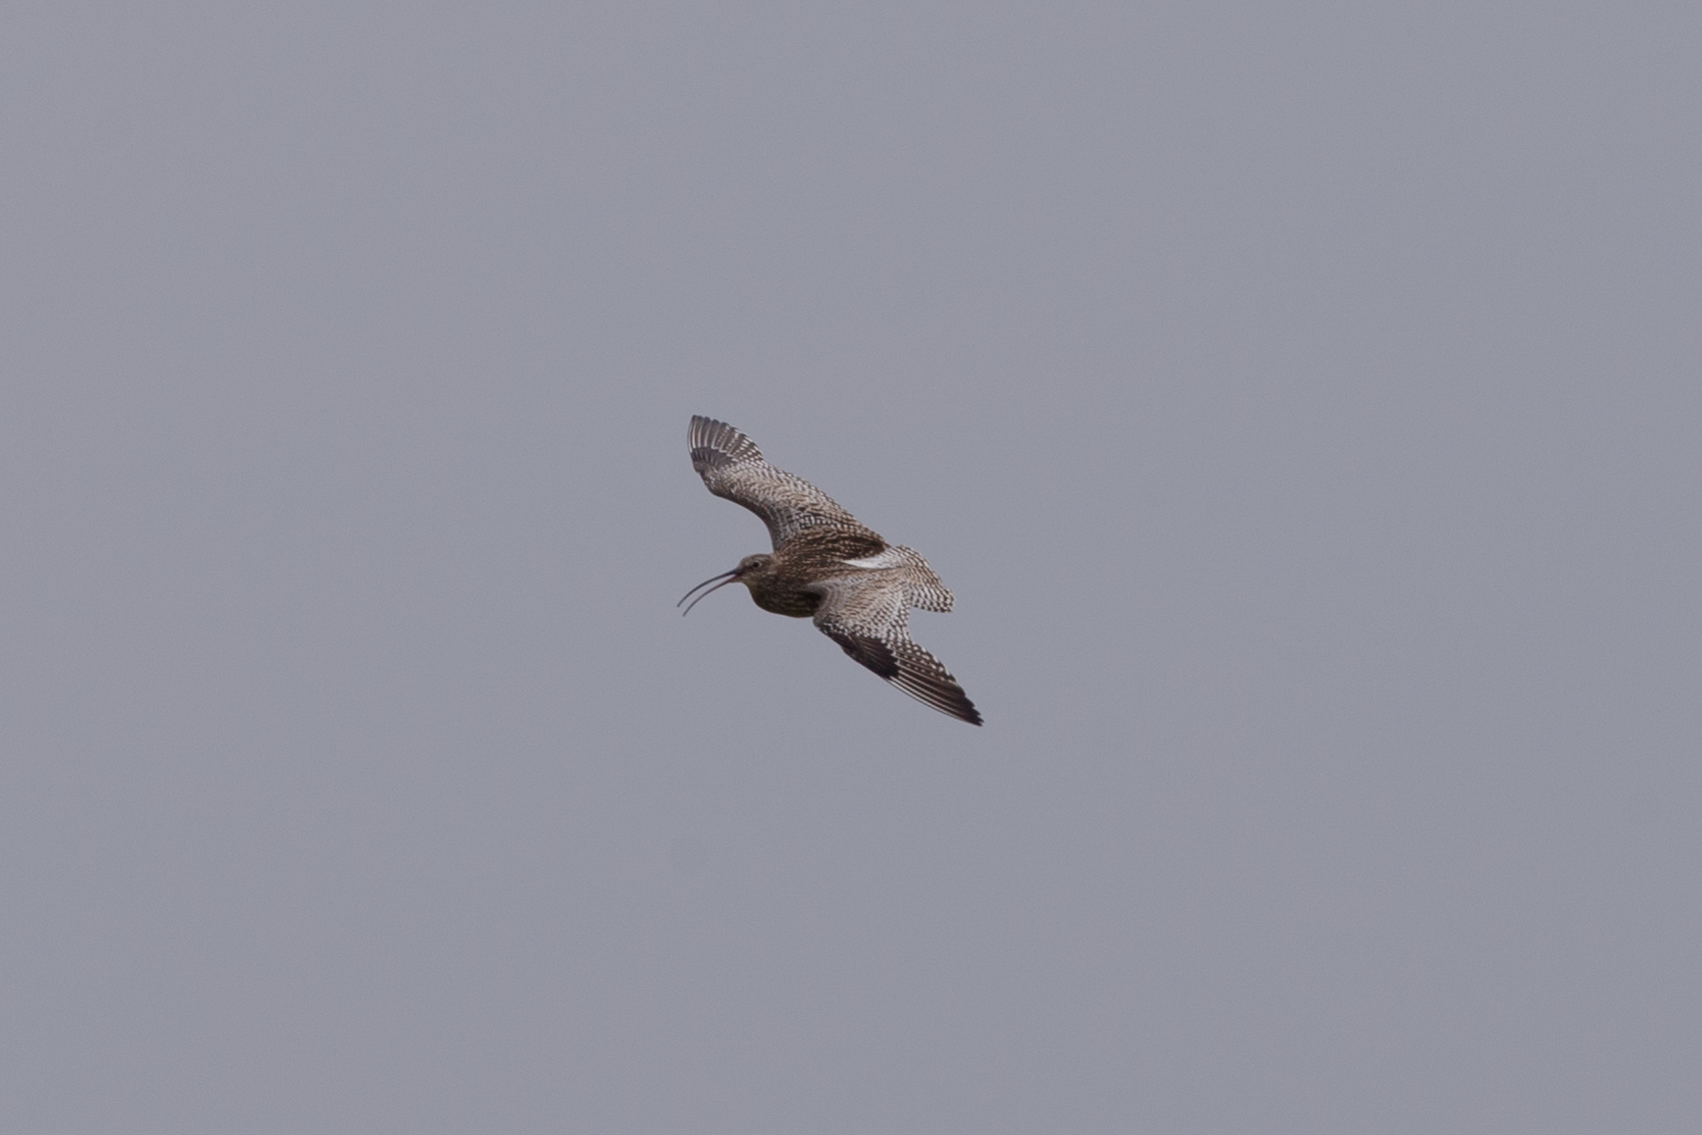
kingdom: Animalia
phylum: Chordata
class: Aves
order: Charadriiformes
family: Scolopacidae
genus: Numenius
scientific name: Numenius arquata
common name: Eurasian curlew
